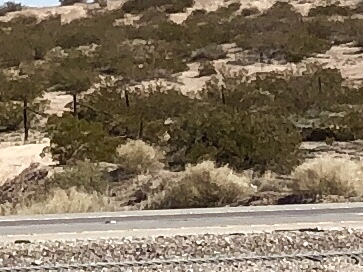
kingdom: Plantae
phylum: Tracheophyta
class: Magnoliopsida
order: Zygophyllales
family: Zygophyllaceae
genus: Larrea
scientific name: Larrea tridentata
